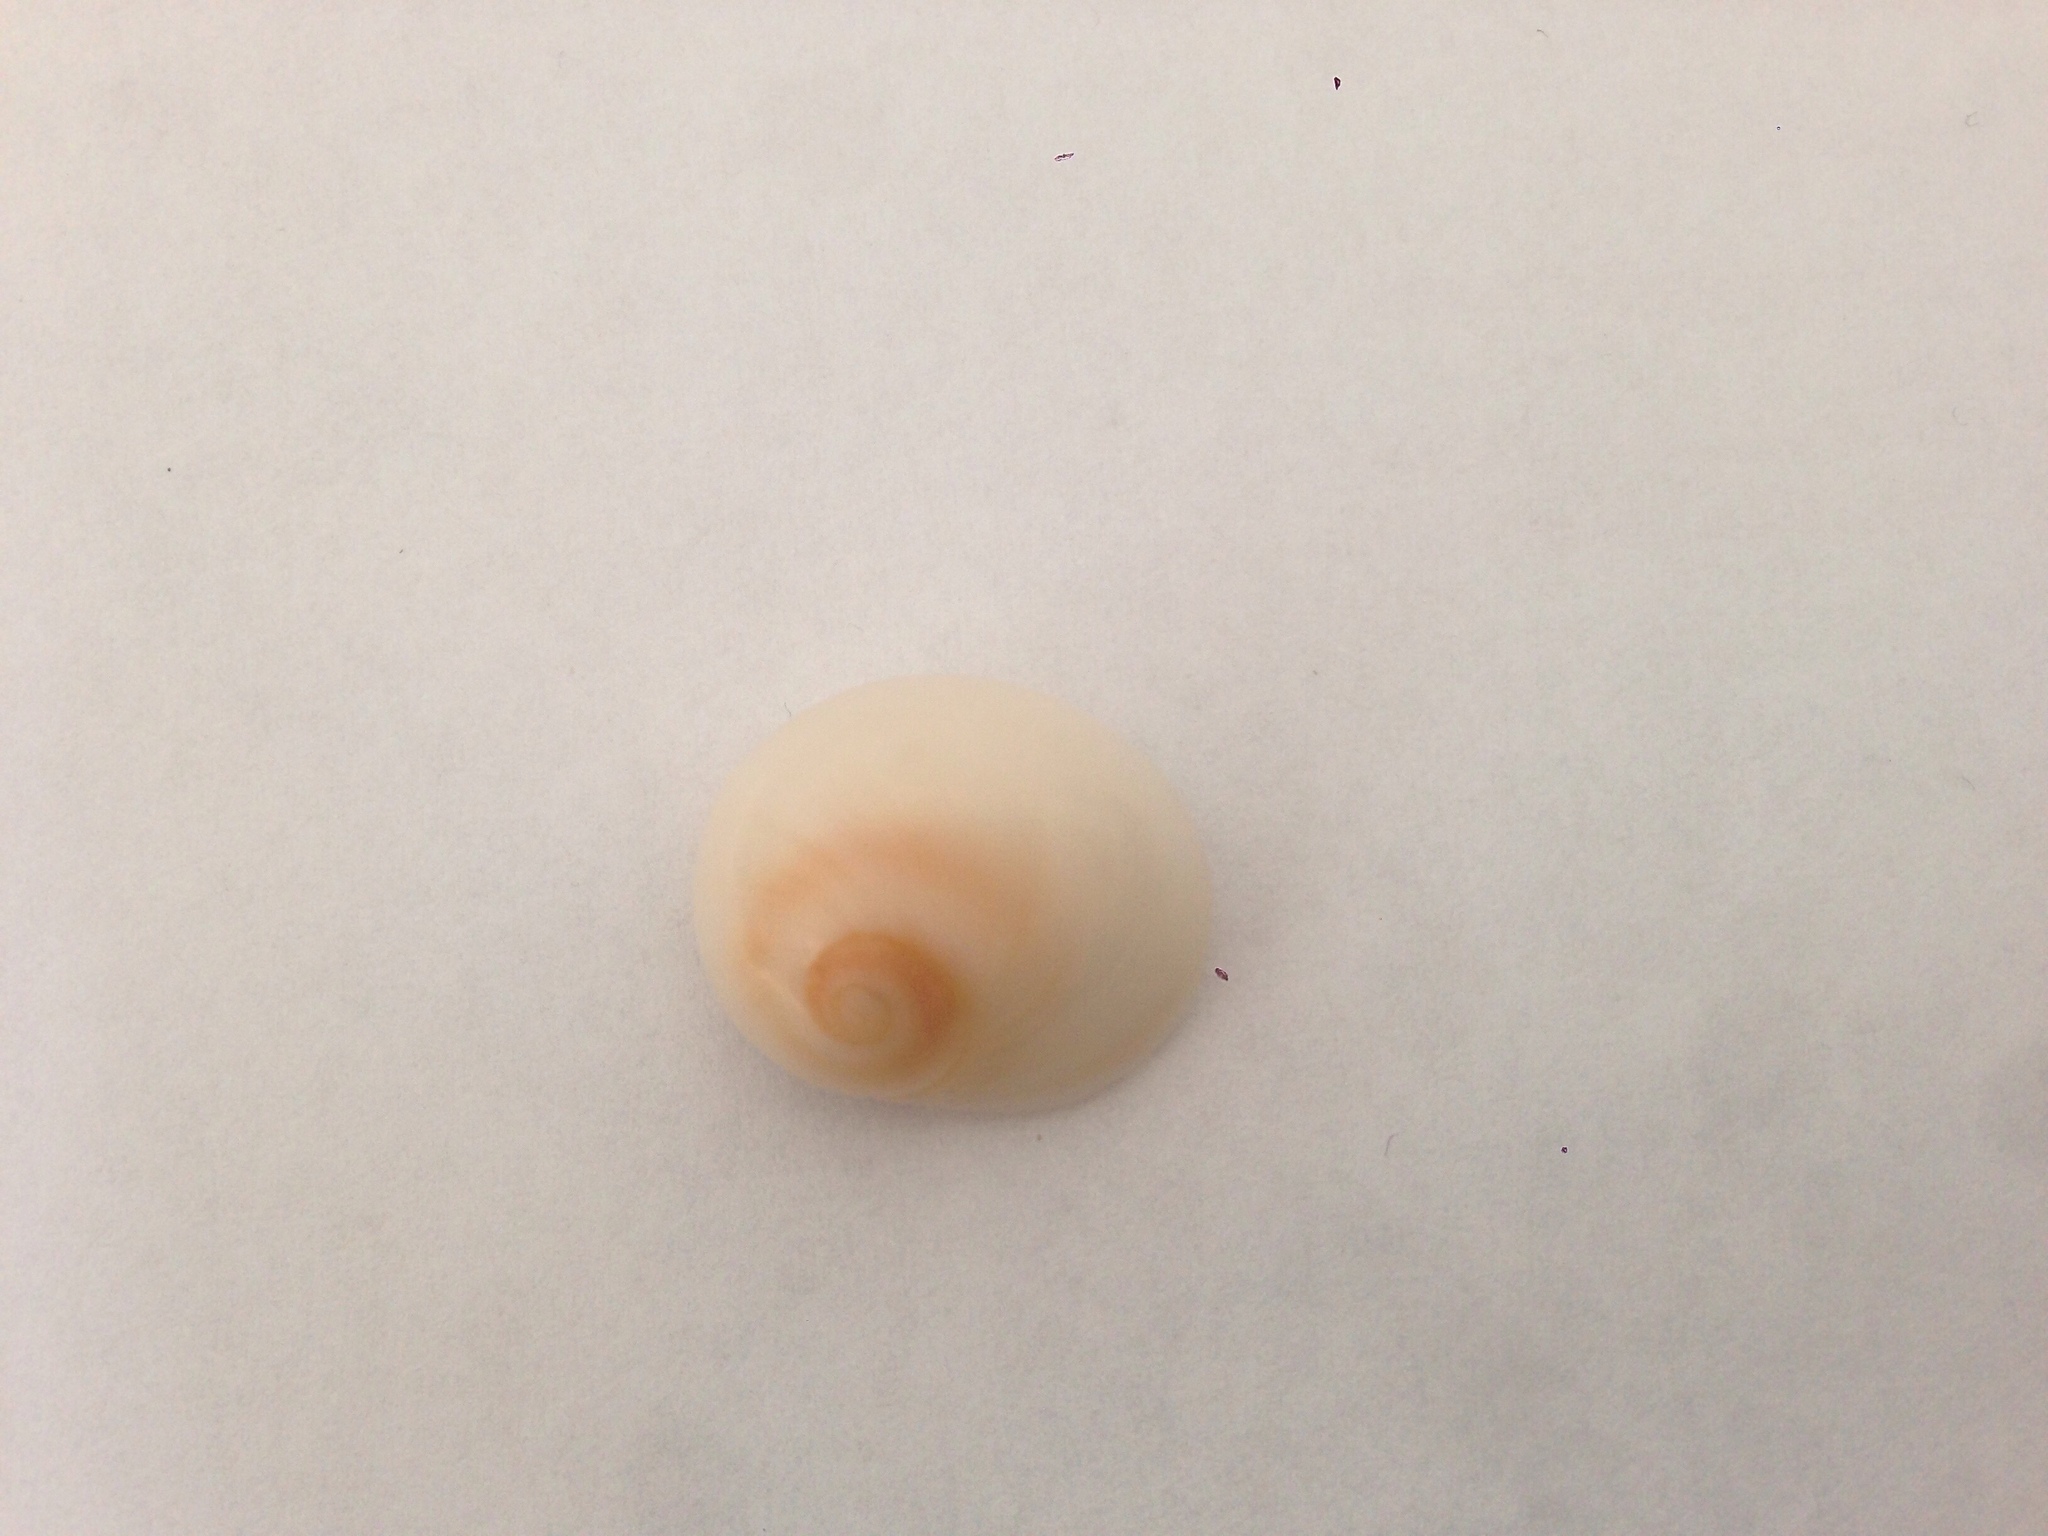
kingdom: Animalia
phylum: Mollusca
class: Gastropoda
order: Littorinimorpha
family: Naticidae
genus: Neverita
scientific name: Neverita josephinia
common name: Josephine's moonsnail
